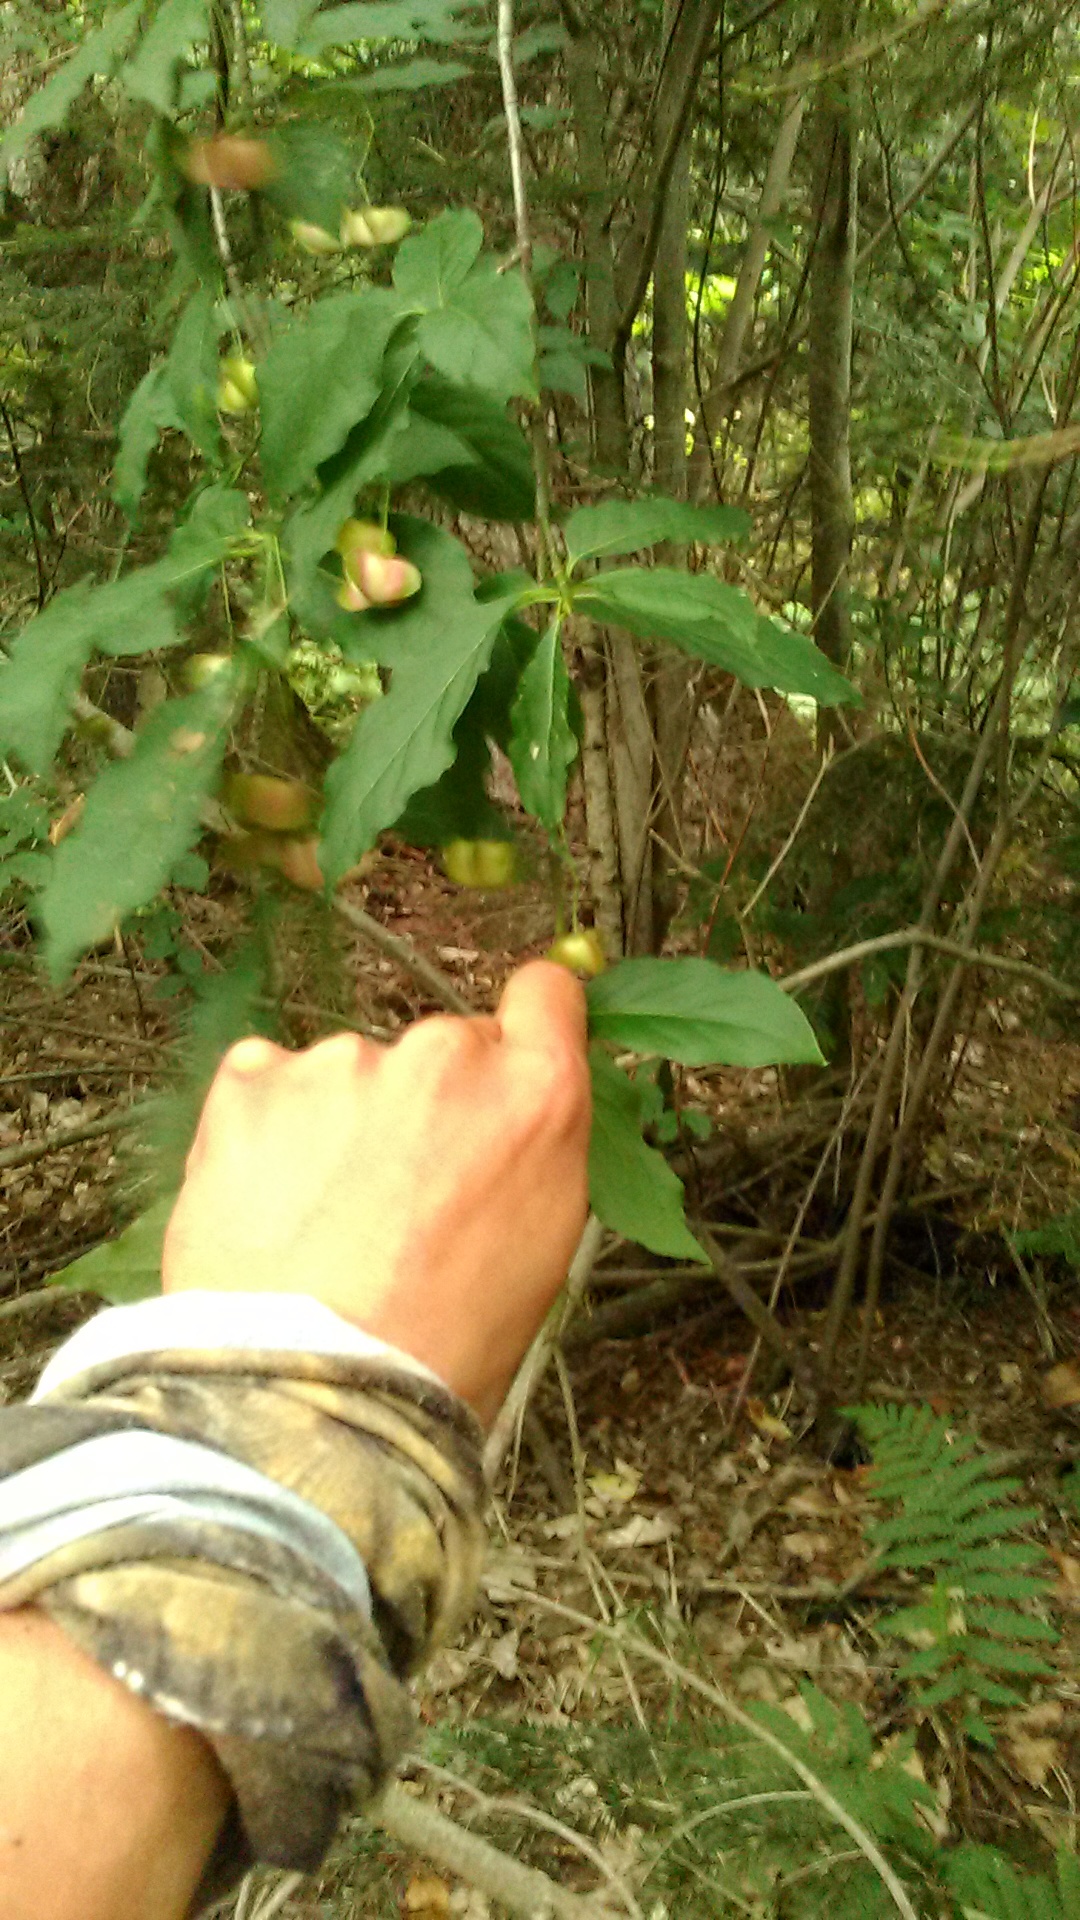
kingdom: Plantae
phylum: Tracheophyta
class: Magnoliopsida
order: Celastrales
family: Celastraceae
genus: Euonymus
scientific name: Euonymus latifolius
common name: Large-leaved spindle
